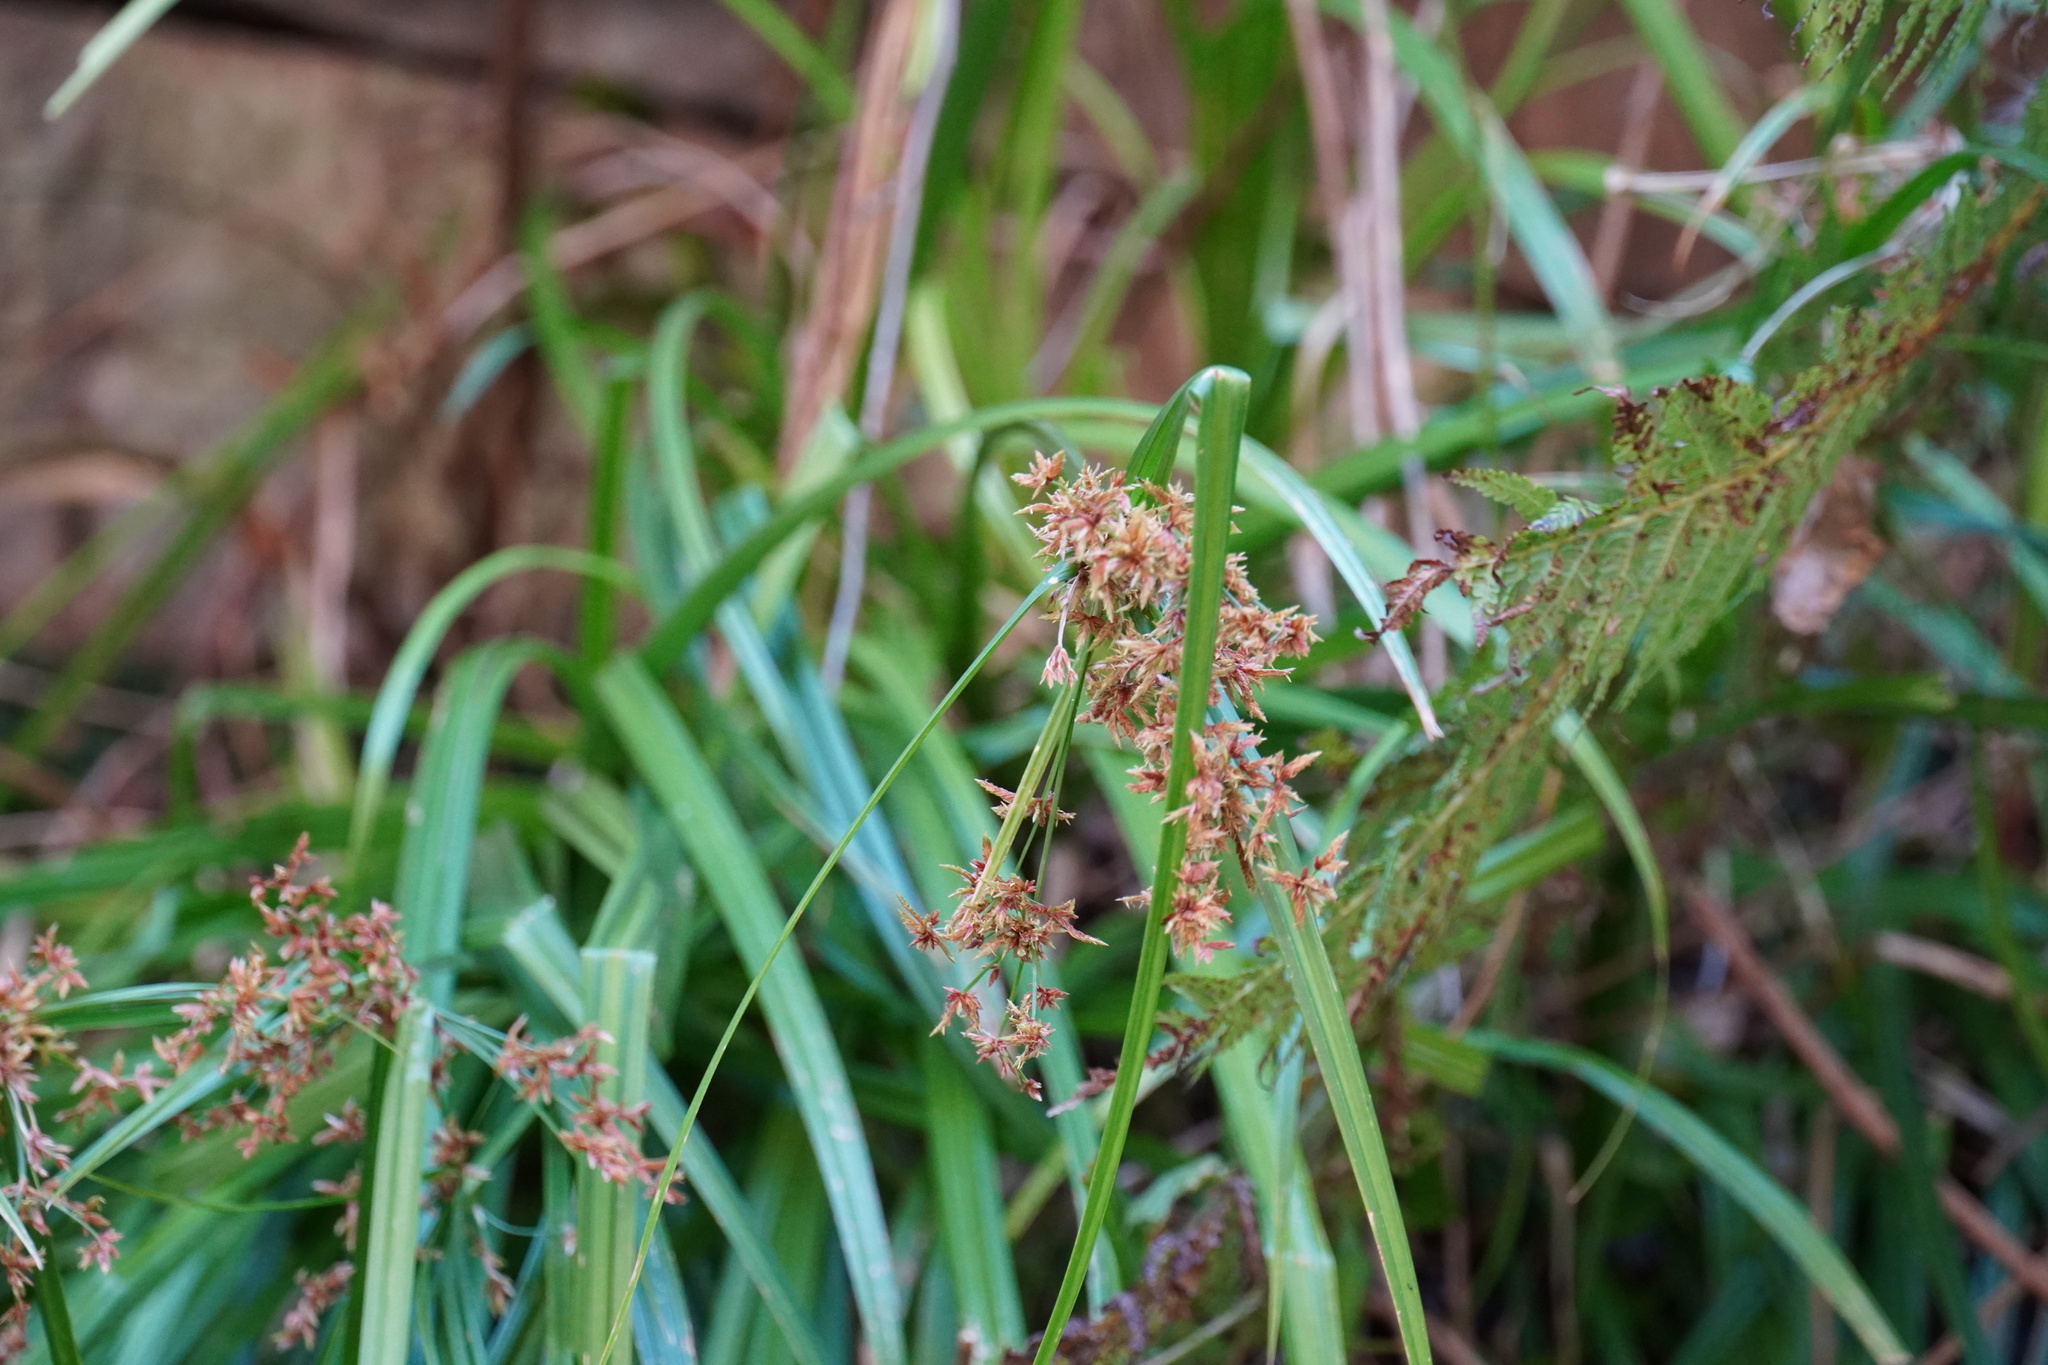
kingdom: Plantae
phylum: Tracheophyta
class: Liliopsida
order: Poales
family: Cyperaceae
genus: Cyperus
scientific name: Cyperus leptocladus
